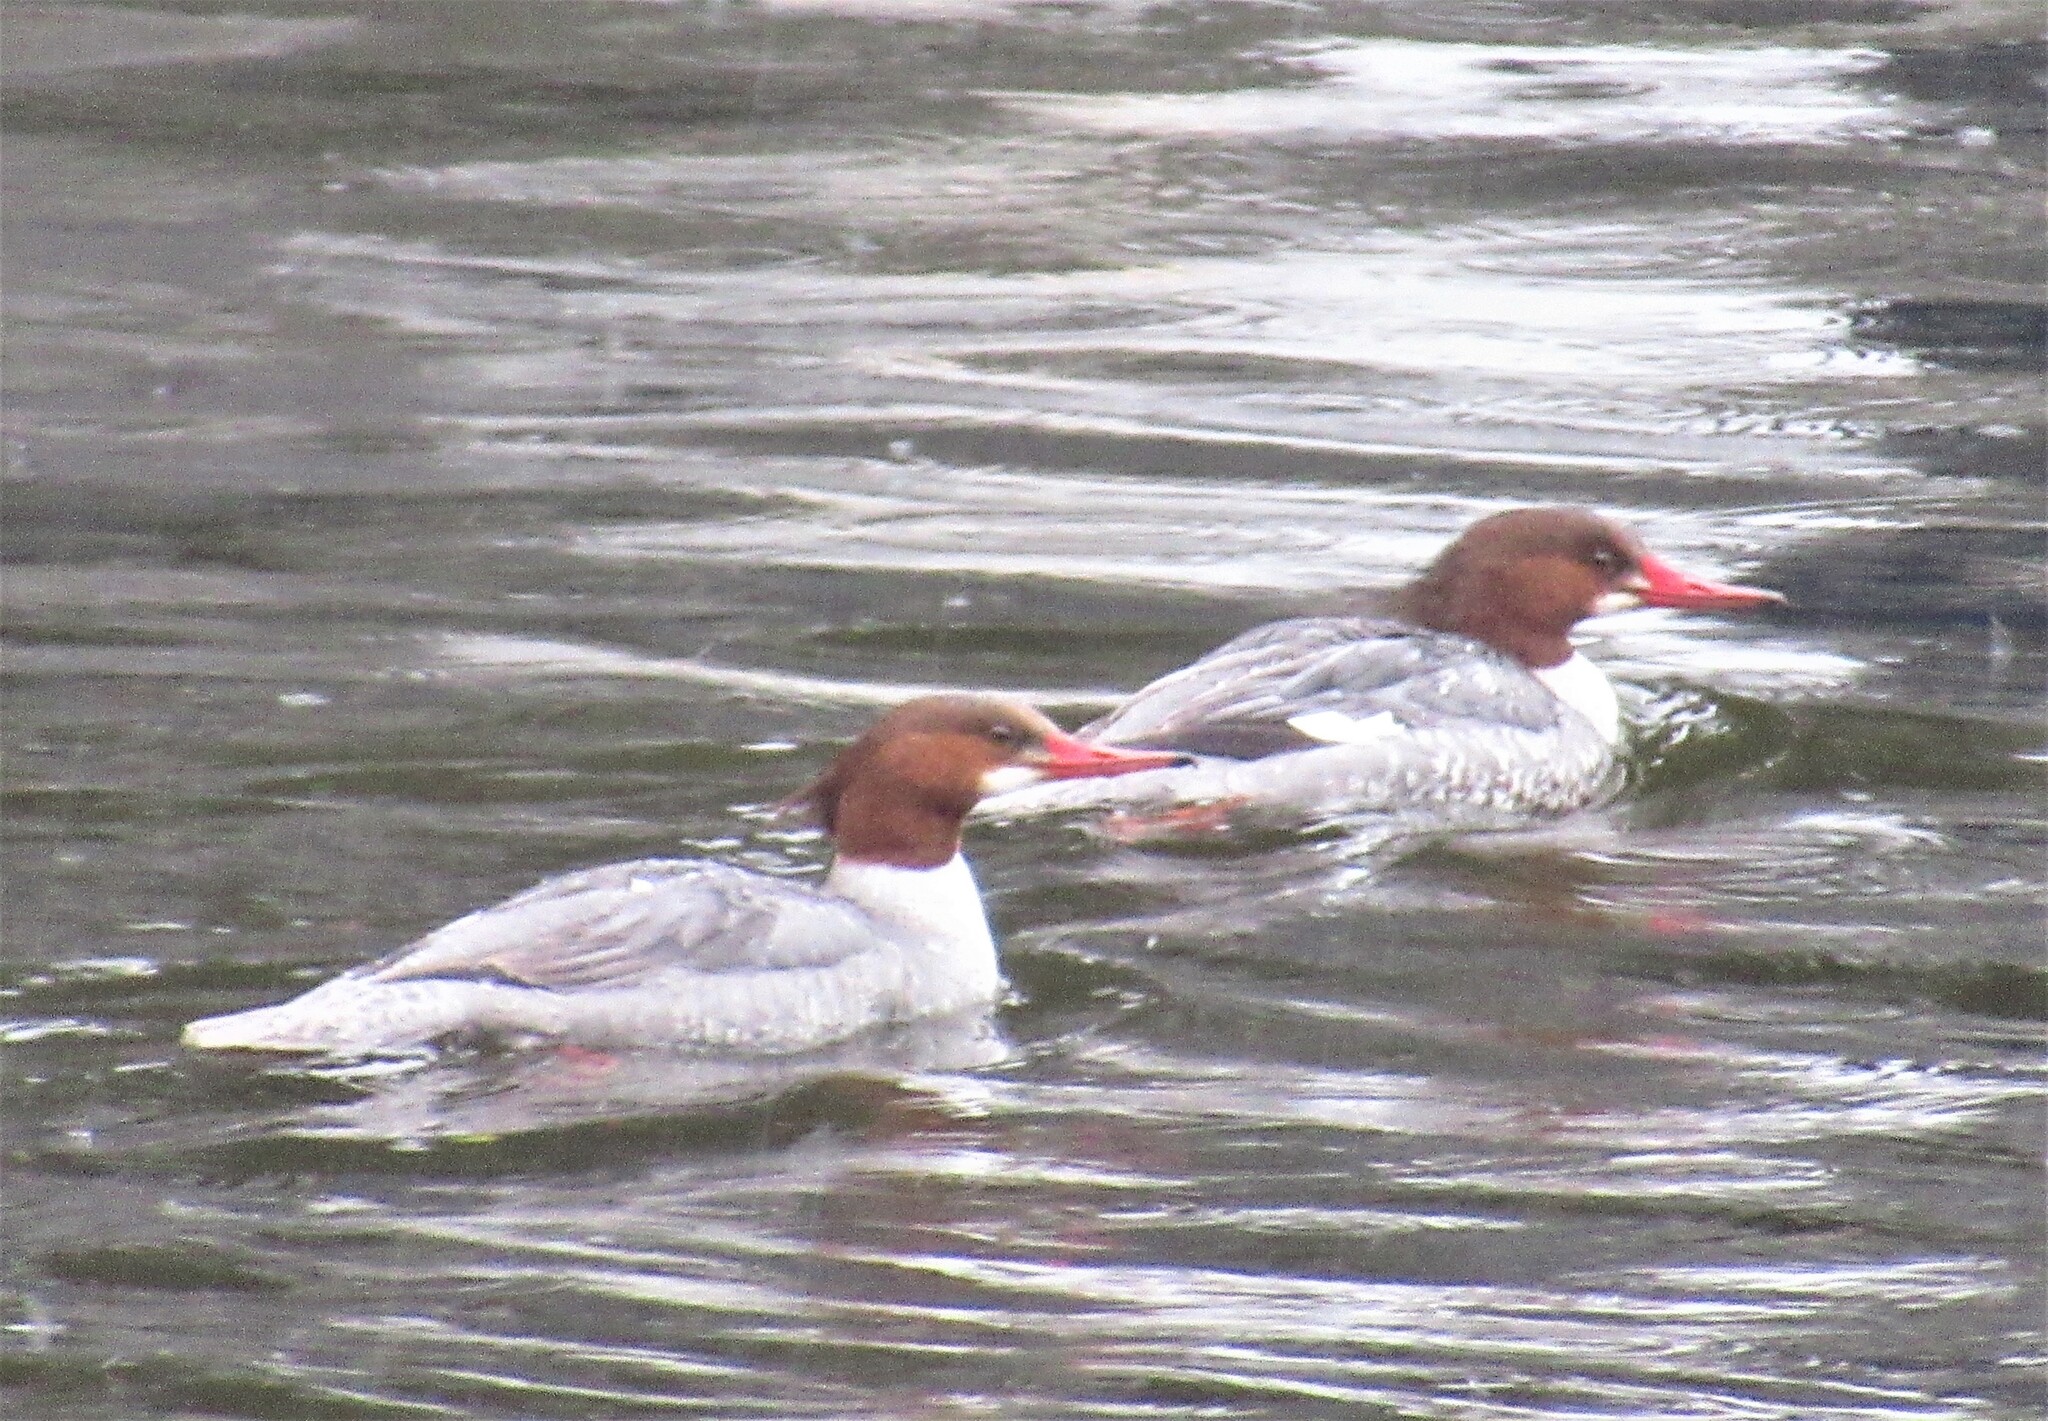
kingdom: Animalia
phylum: Chordata
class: Aves
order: Anseriformes
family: Anatidae
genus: Mergus
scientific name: Mergus merganser
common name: Common merganser
